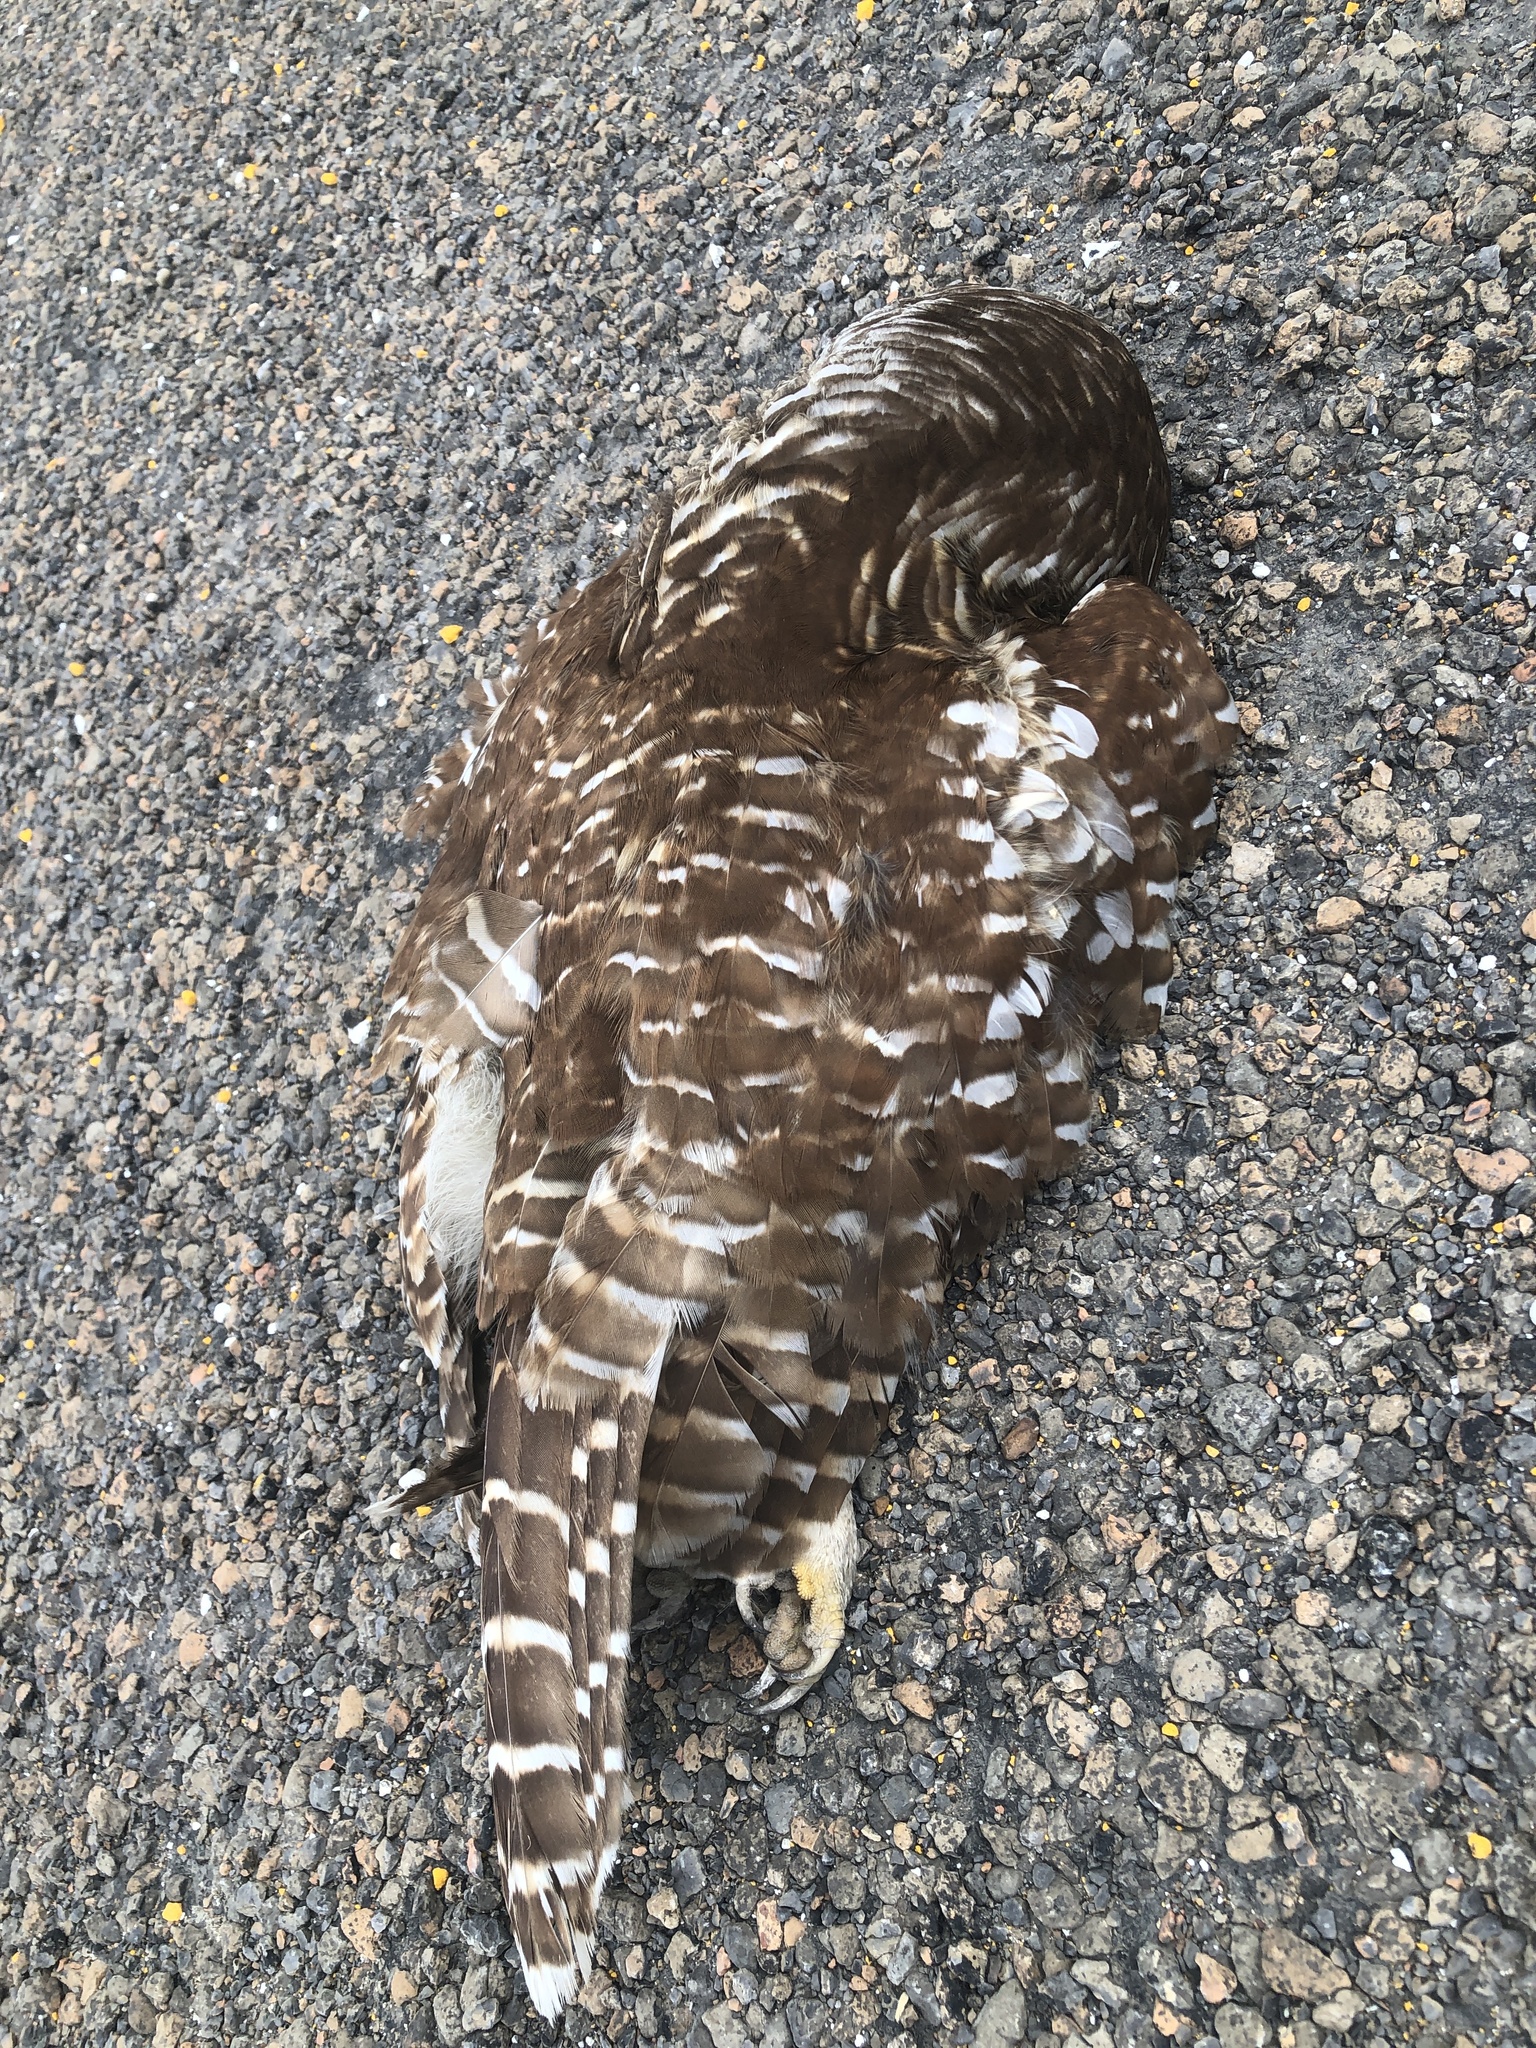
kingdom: Animalia
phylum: Chordata
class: Aves
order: Strigiformes
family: Strigidae
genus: Strix
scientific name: Strix varia
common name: Barred owl
